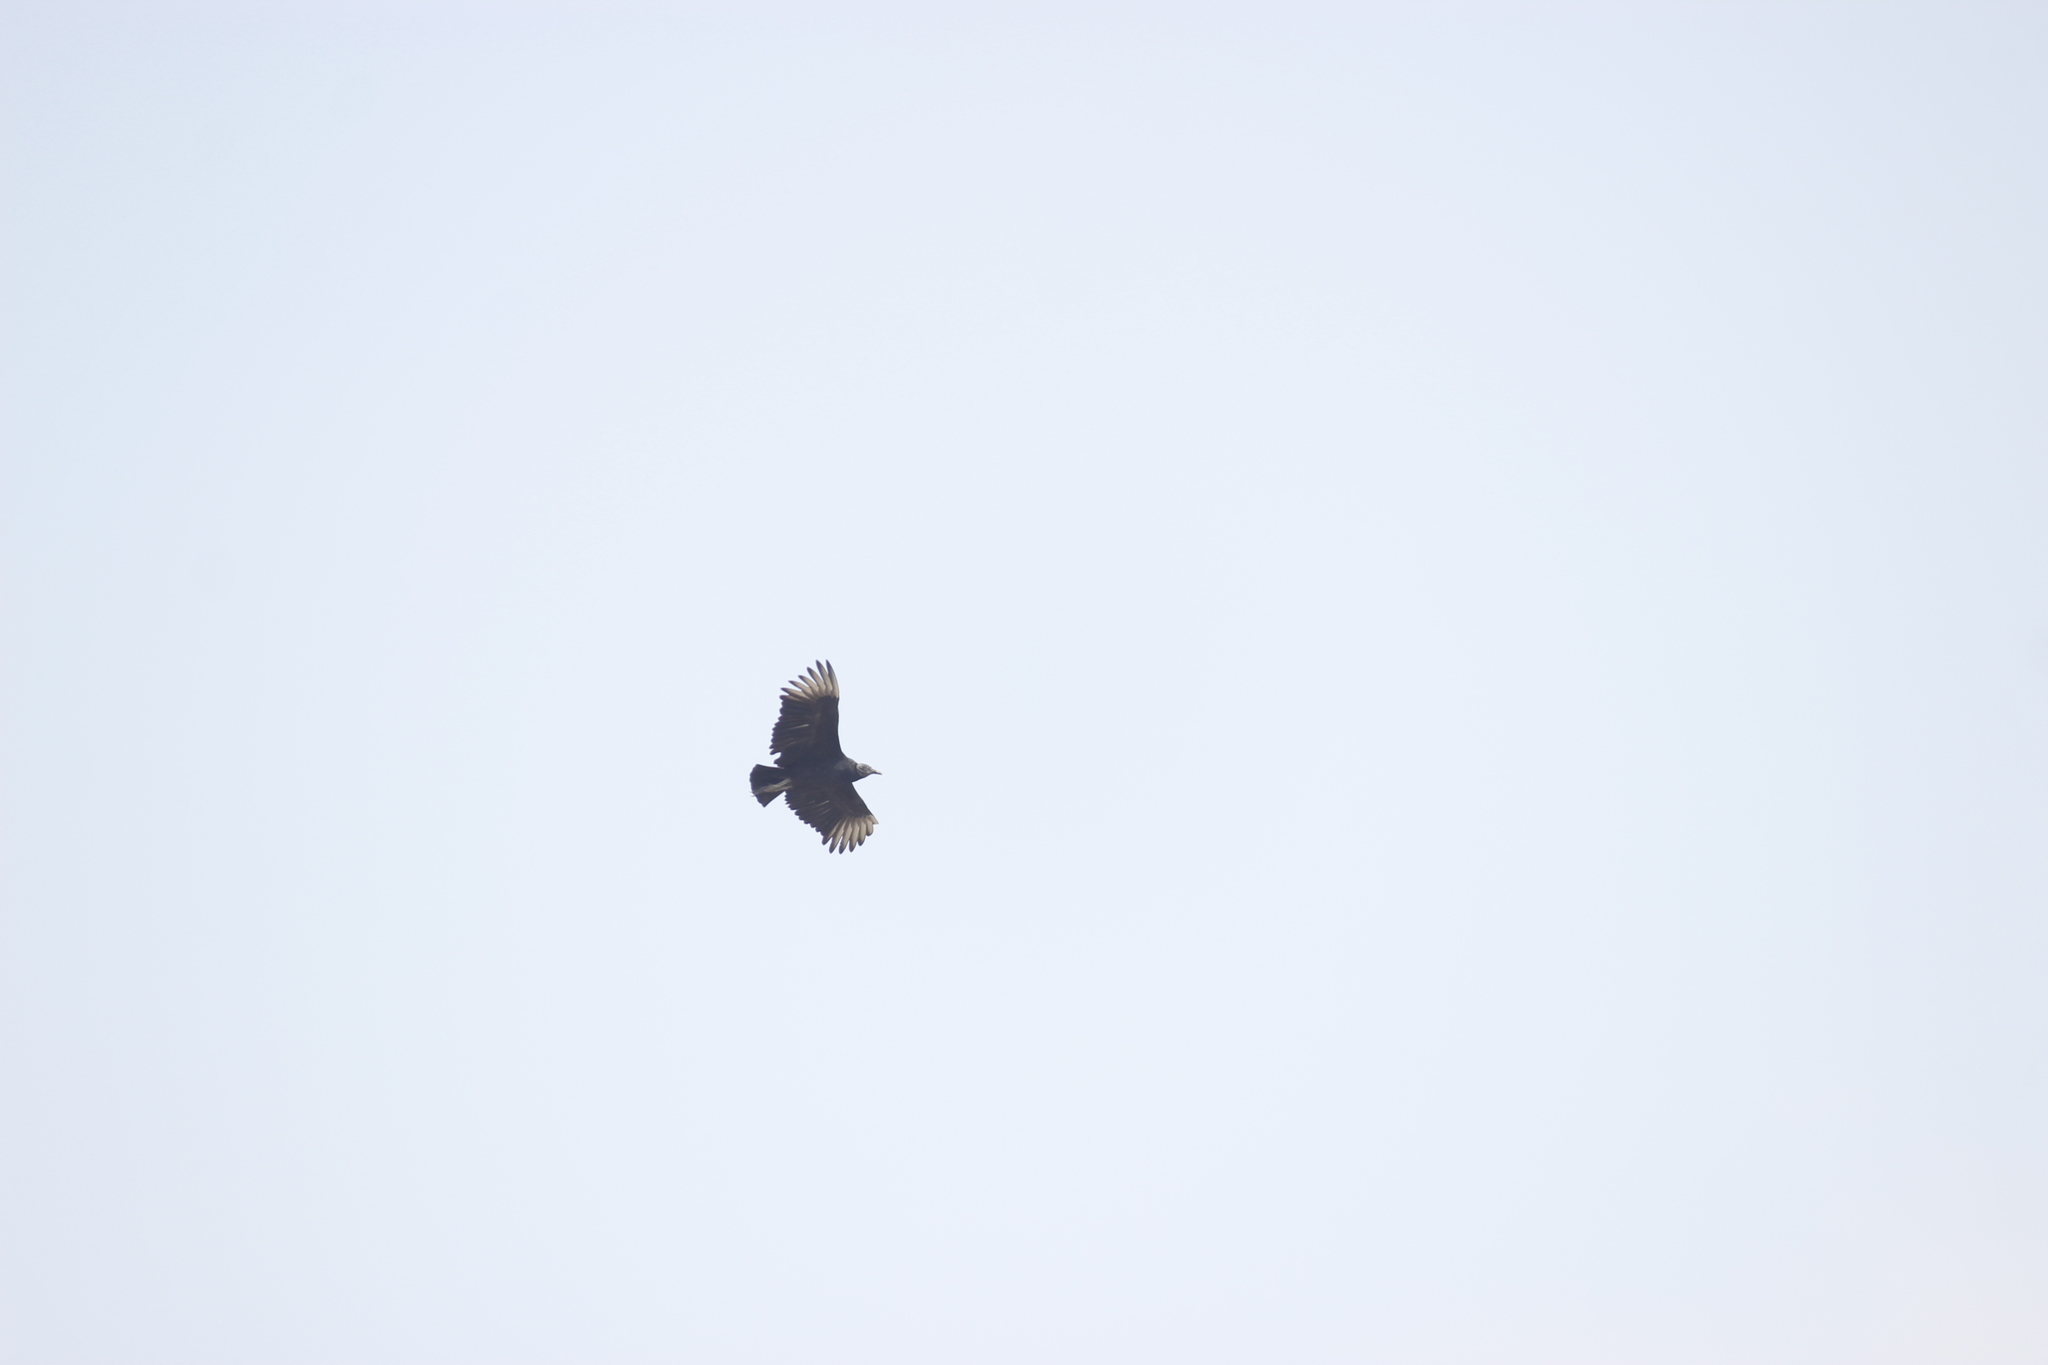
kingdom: Animalia
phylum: Chordata
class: Aves
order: Accipitriformes
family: Cathartidae
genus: Coragyps
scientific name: Coragyps atratus
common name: Black vulture
